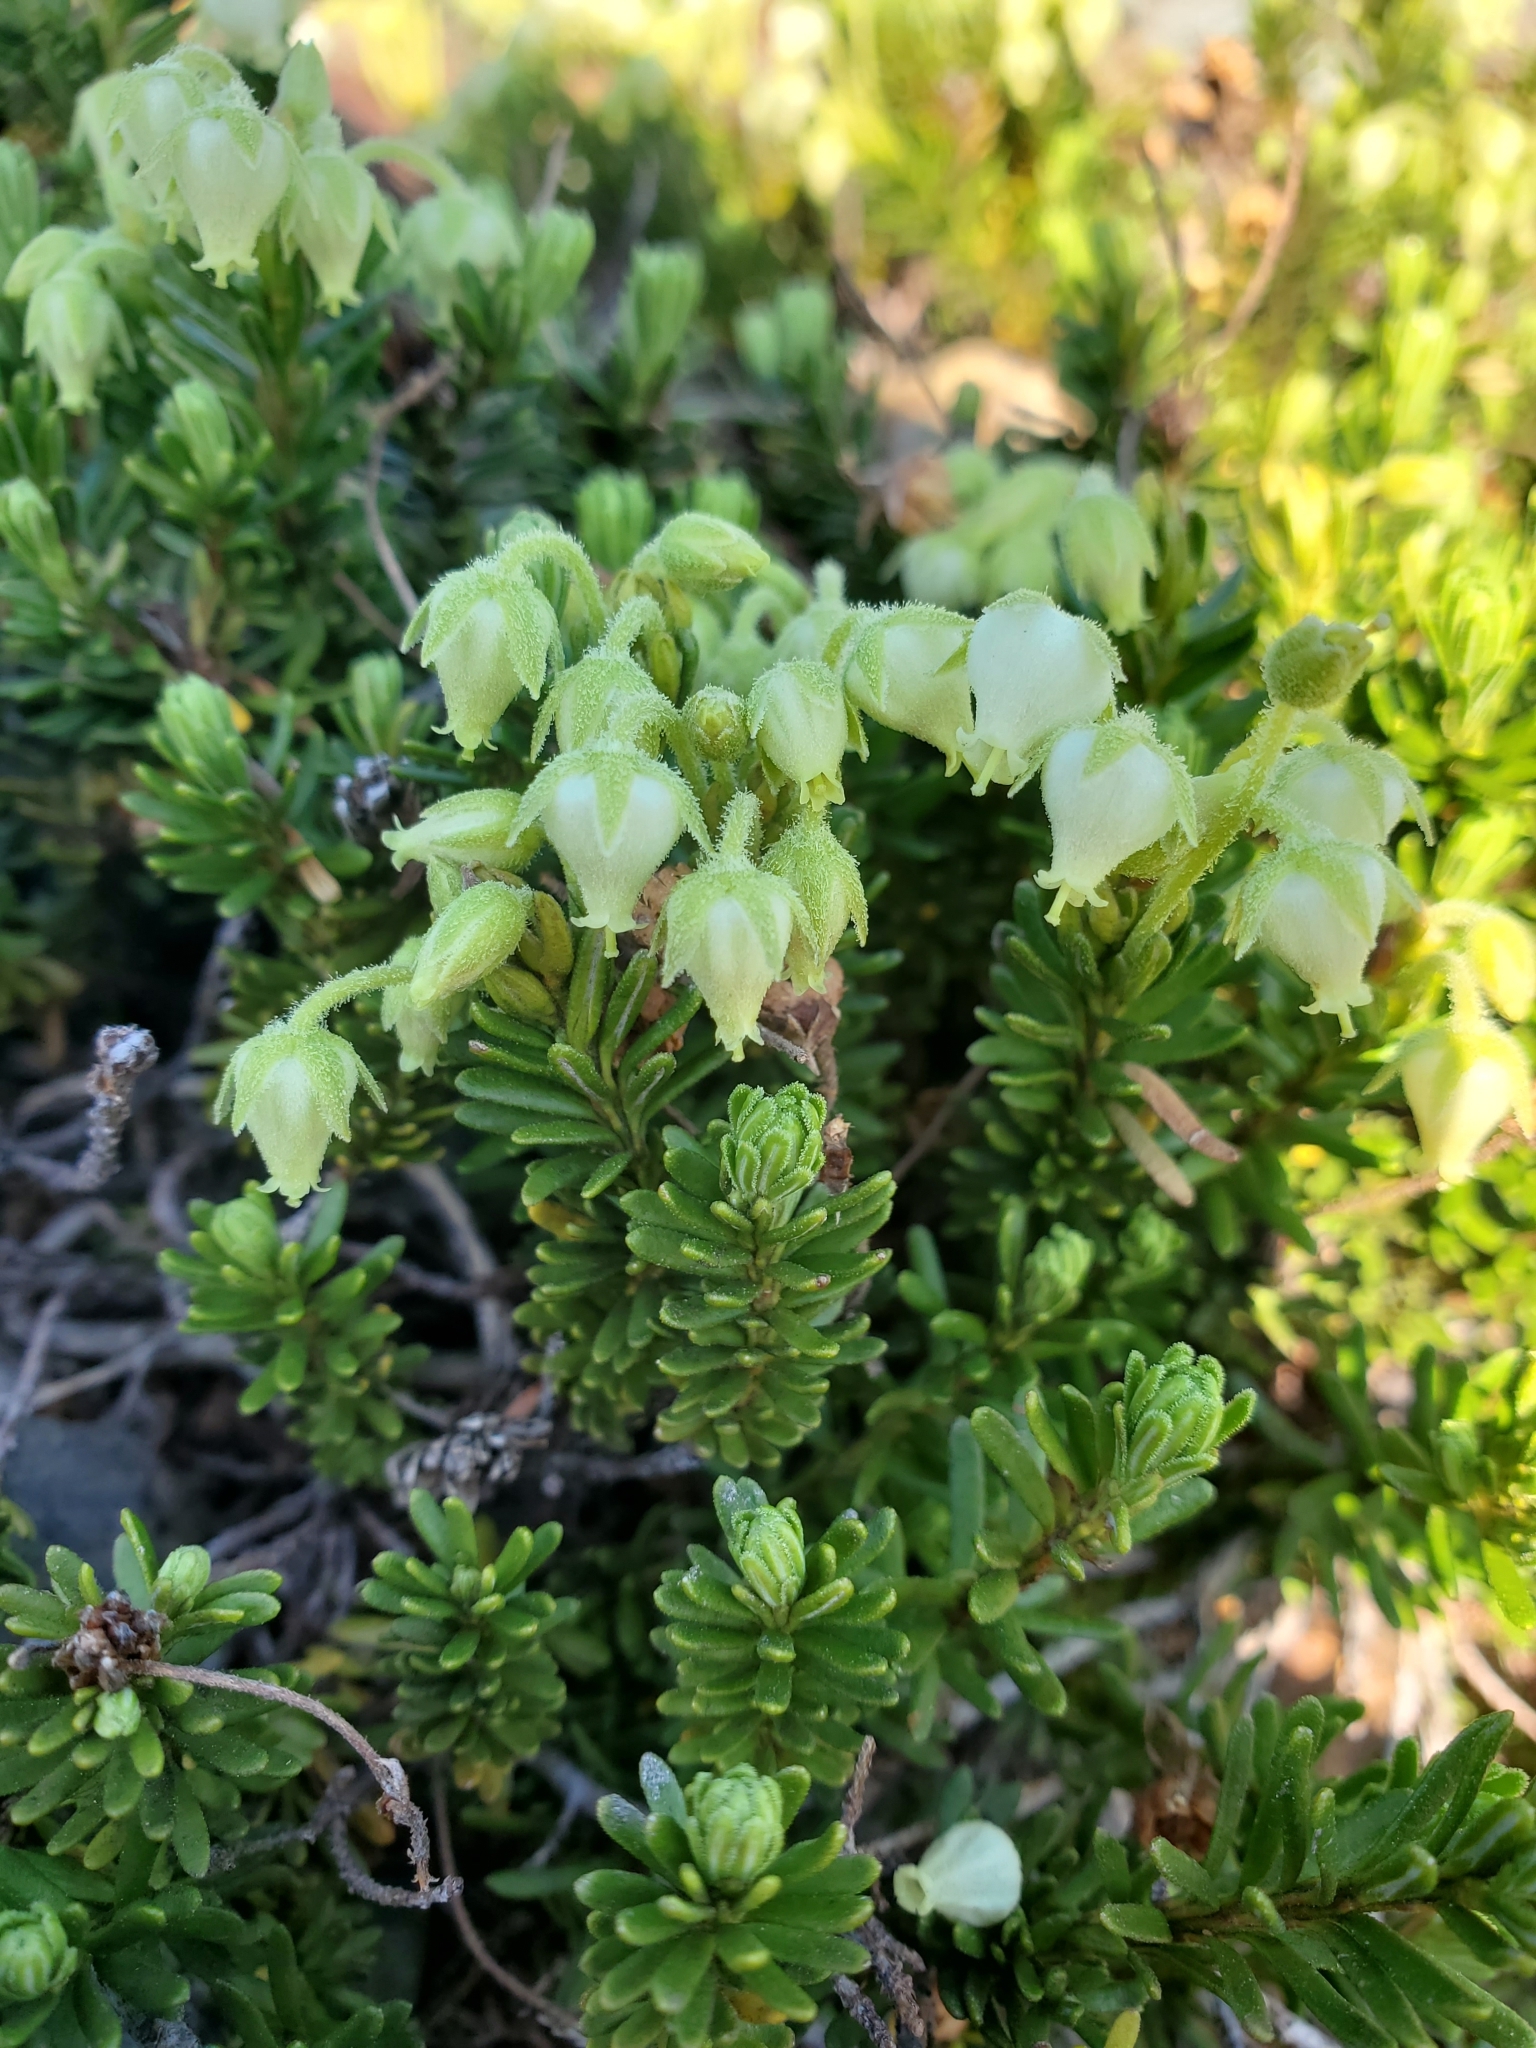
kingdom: Plantae
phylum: Tracheophyta
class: Magnoliopsida
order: Ericales
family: Ericaceae
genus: Phyllodoce
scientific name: Phyllodoce glanduliflora
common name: Cream mountain heather
